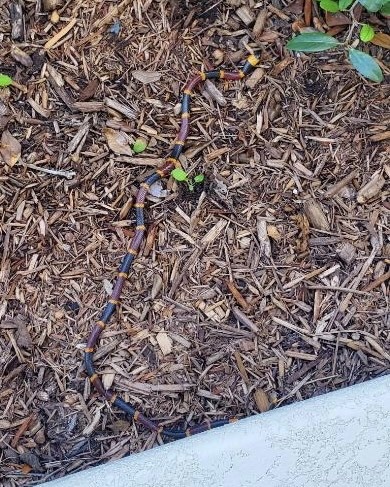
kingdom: Animalia
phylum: Chordata
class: Squamata
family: Elapidae
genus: Micrurus
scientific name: Micrurus fulvius
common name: Eastern coral snake
